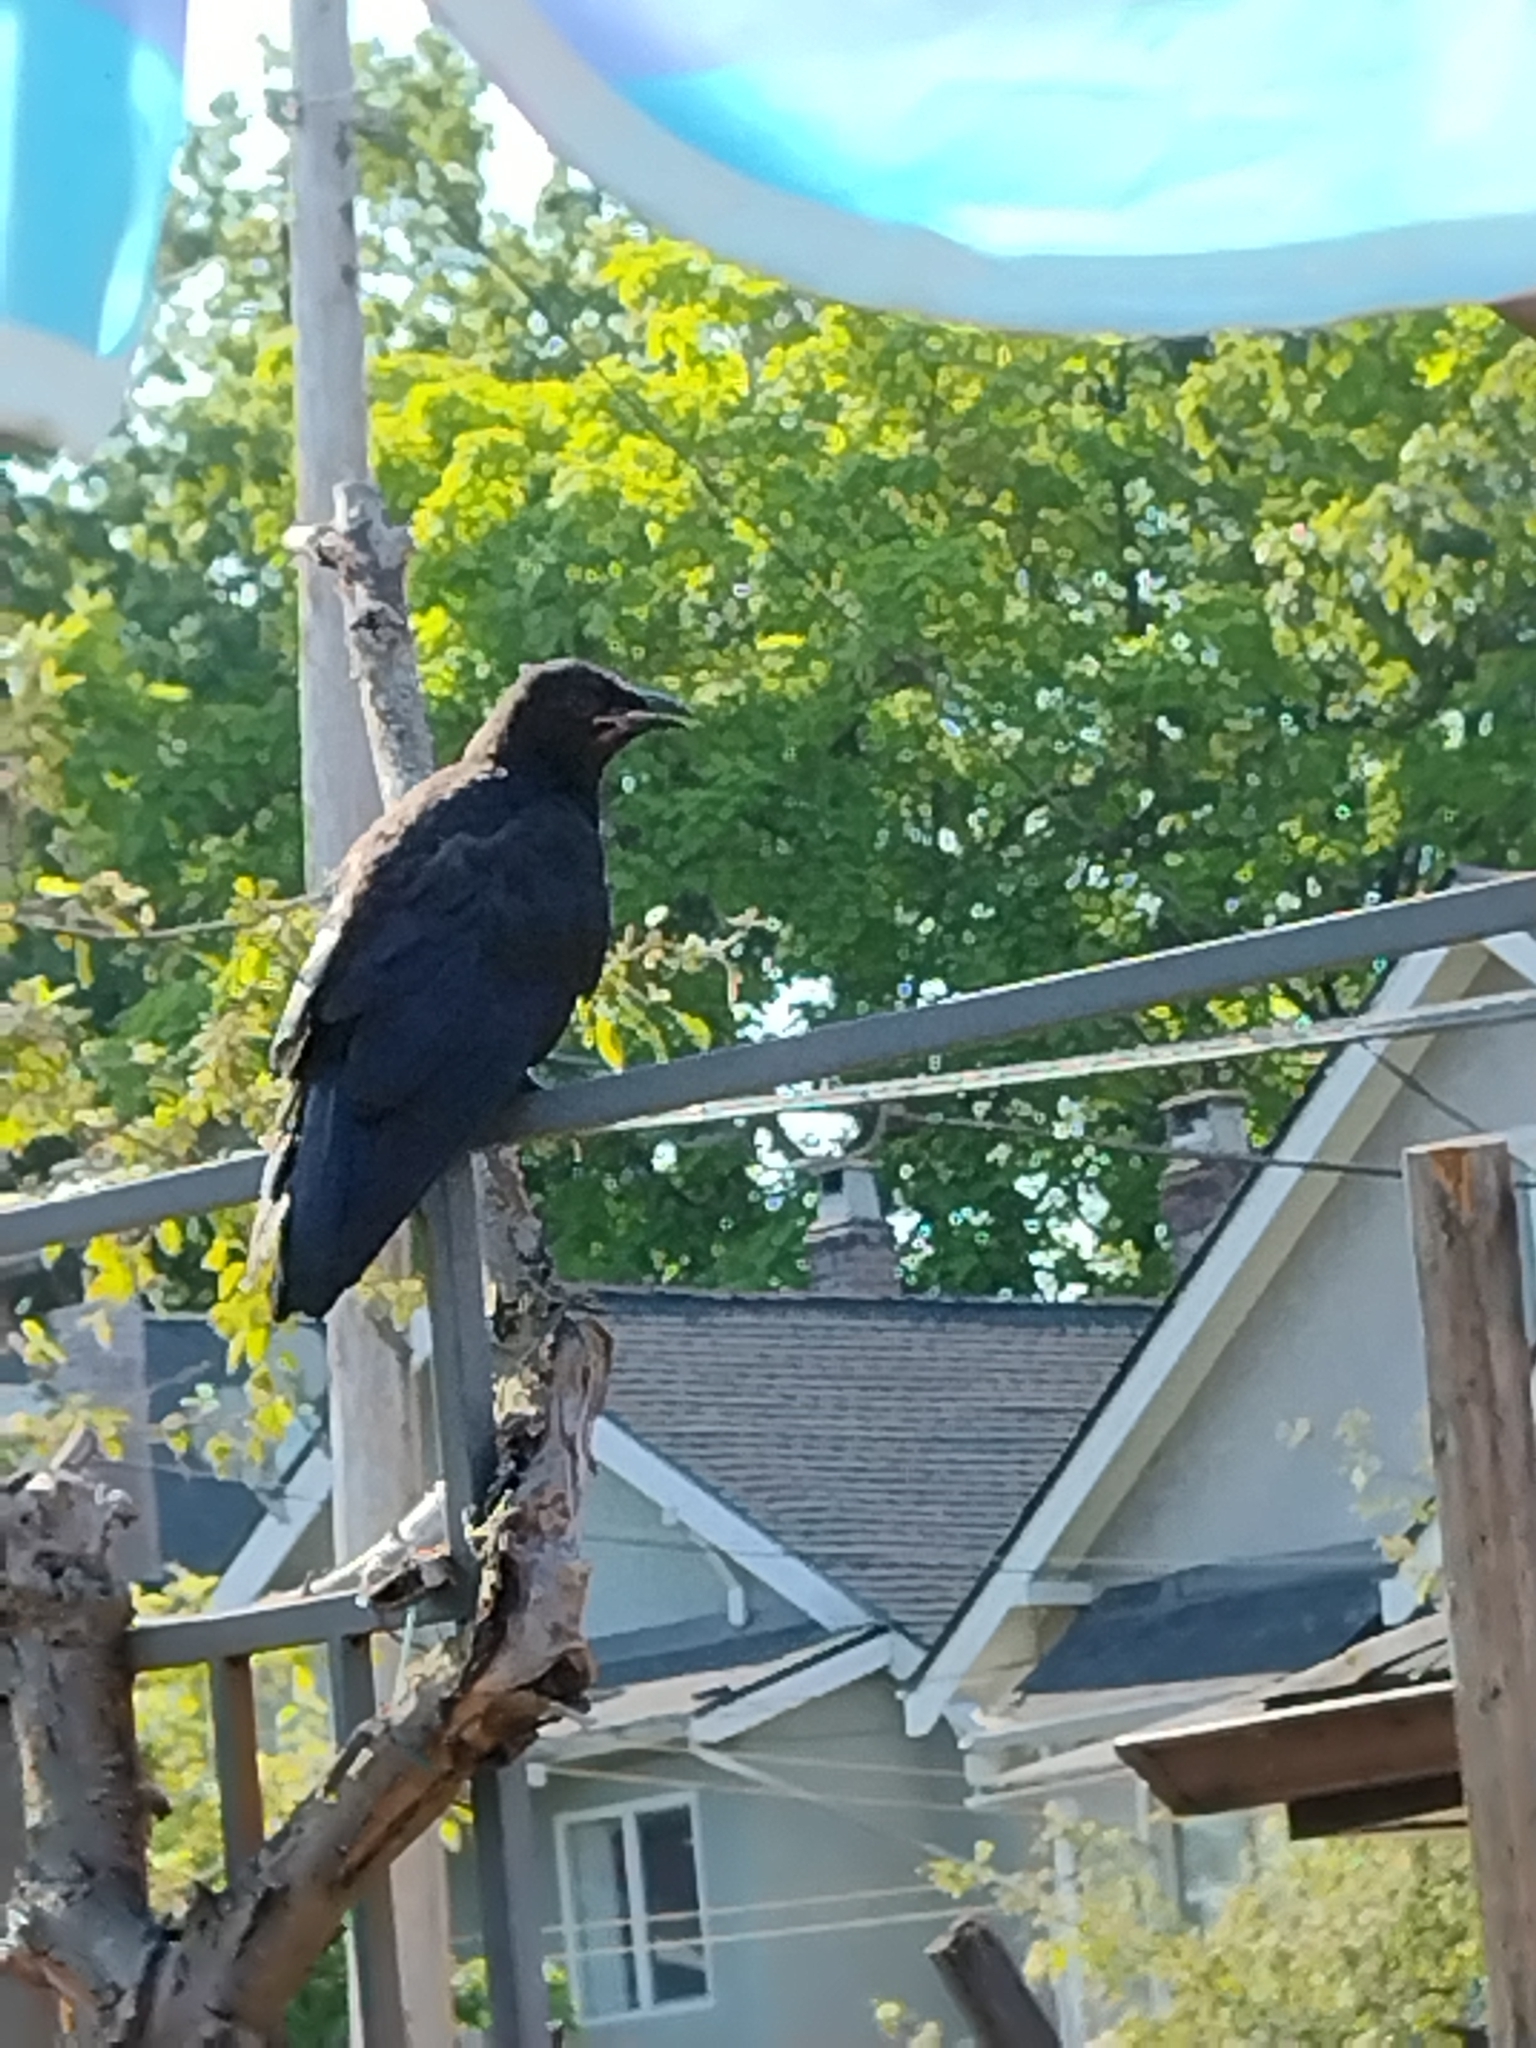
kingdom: Animalia
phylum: Chordata
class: Aves
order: Passeriformes
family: Corvidae
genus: Corvus
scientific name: Corvus brachyrhynchos
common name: American crow
